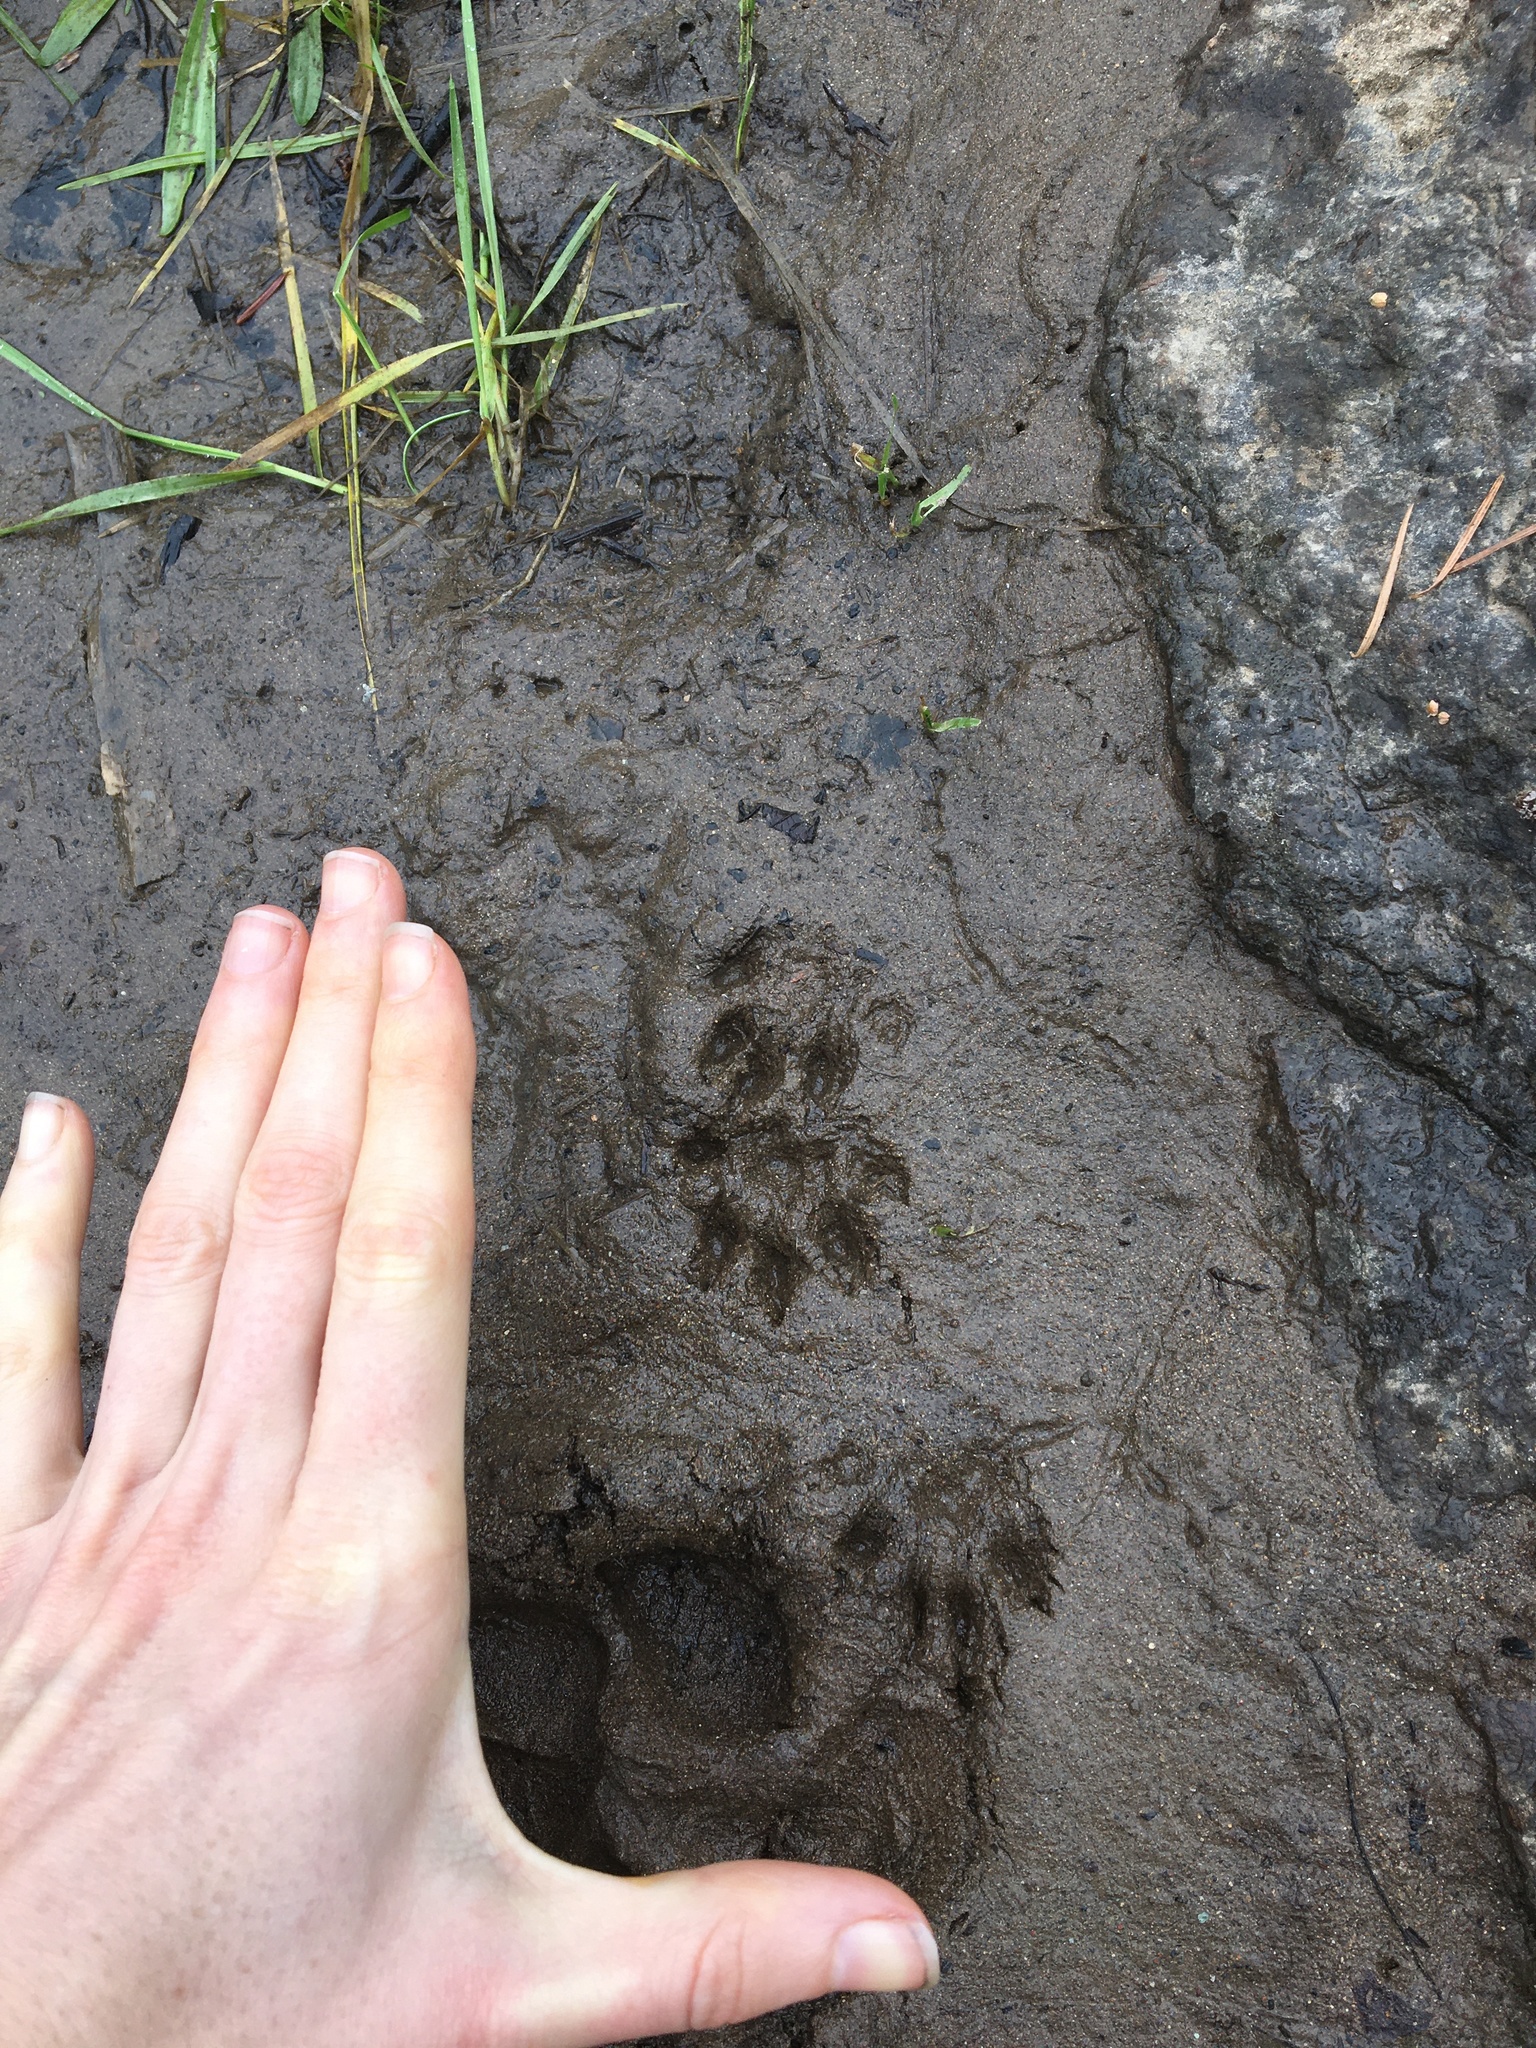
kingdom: Animalia
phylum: Chordata
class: Mammalia
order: Carnivora
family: Mustelidae
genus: Mustela
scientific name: Mustela
